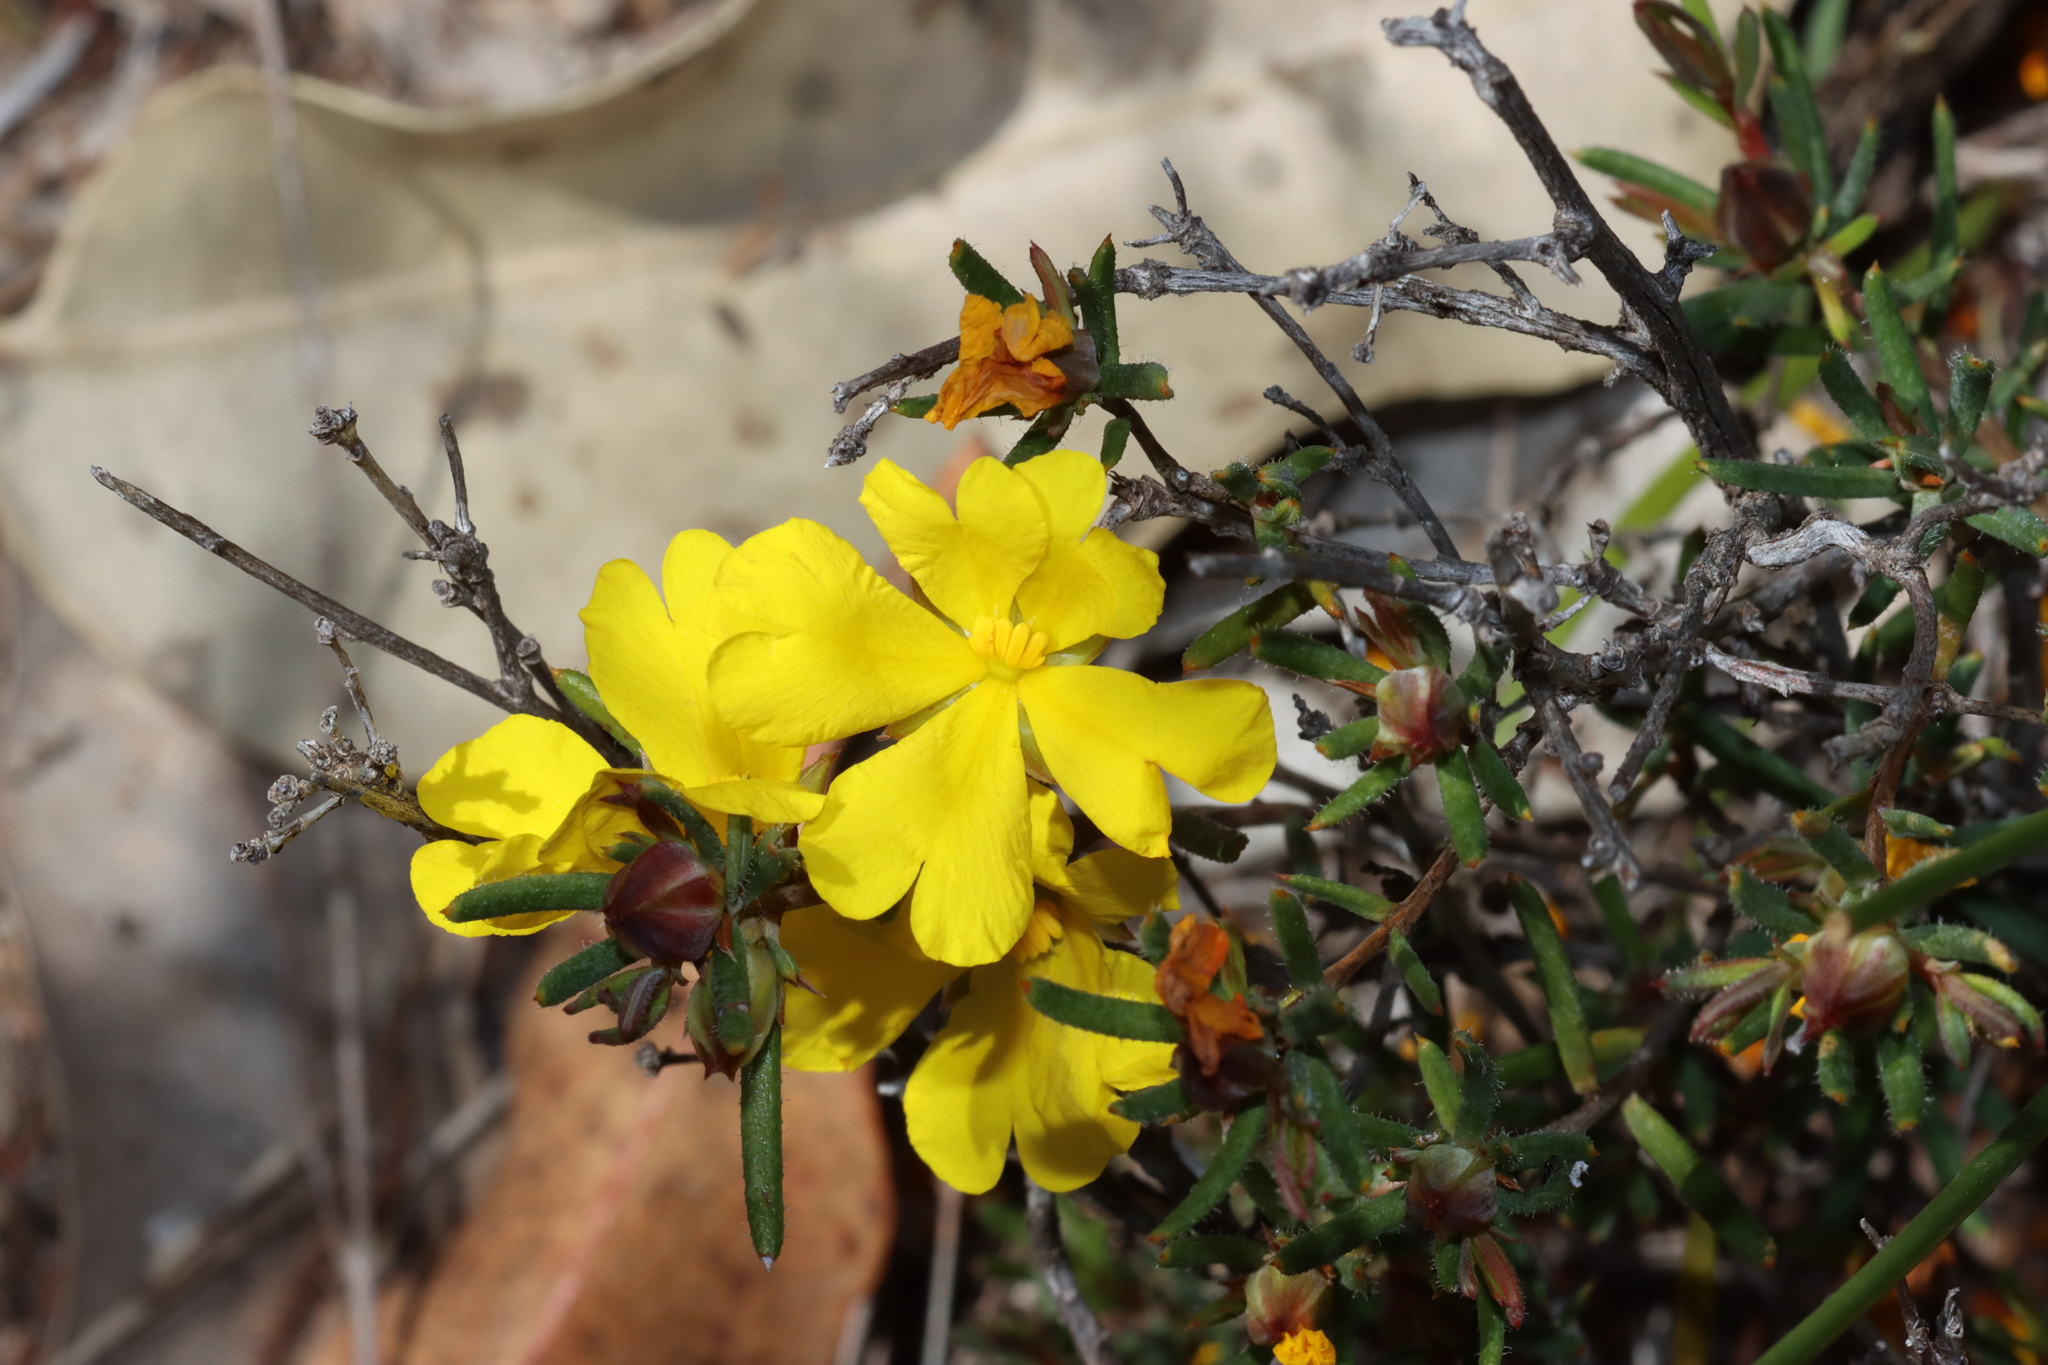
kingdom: Plantae
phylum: Tracheophyta
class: Magnoliopsida
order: Dilleniales
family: Dilleniaceae
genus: Hibbertia
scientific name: Hibbertia aurea
